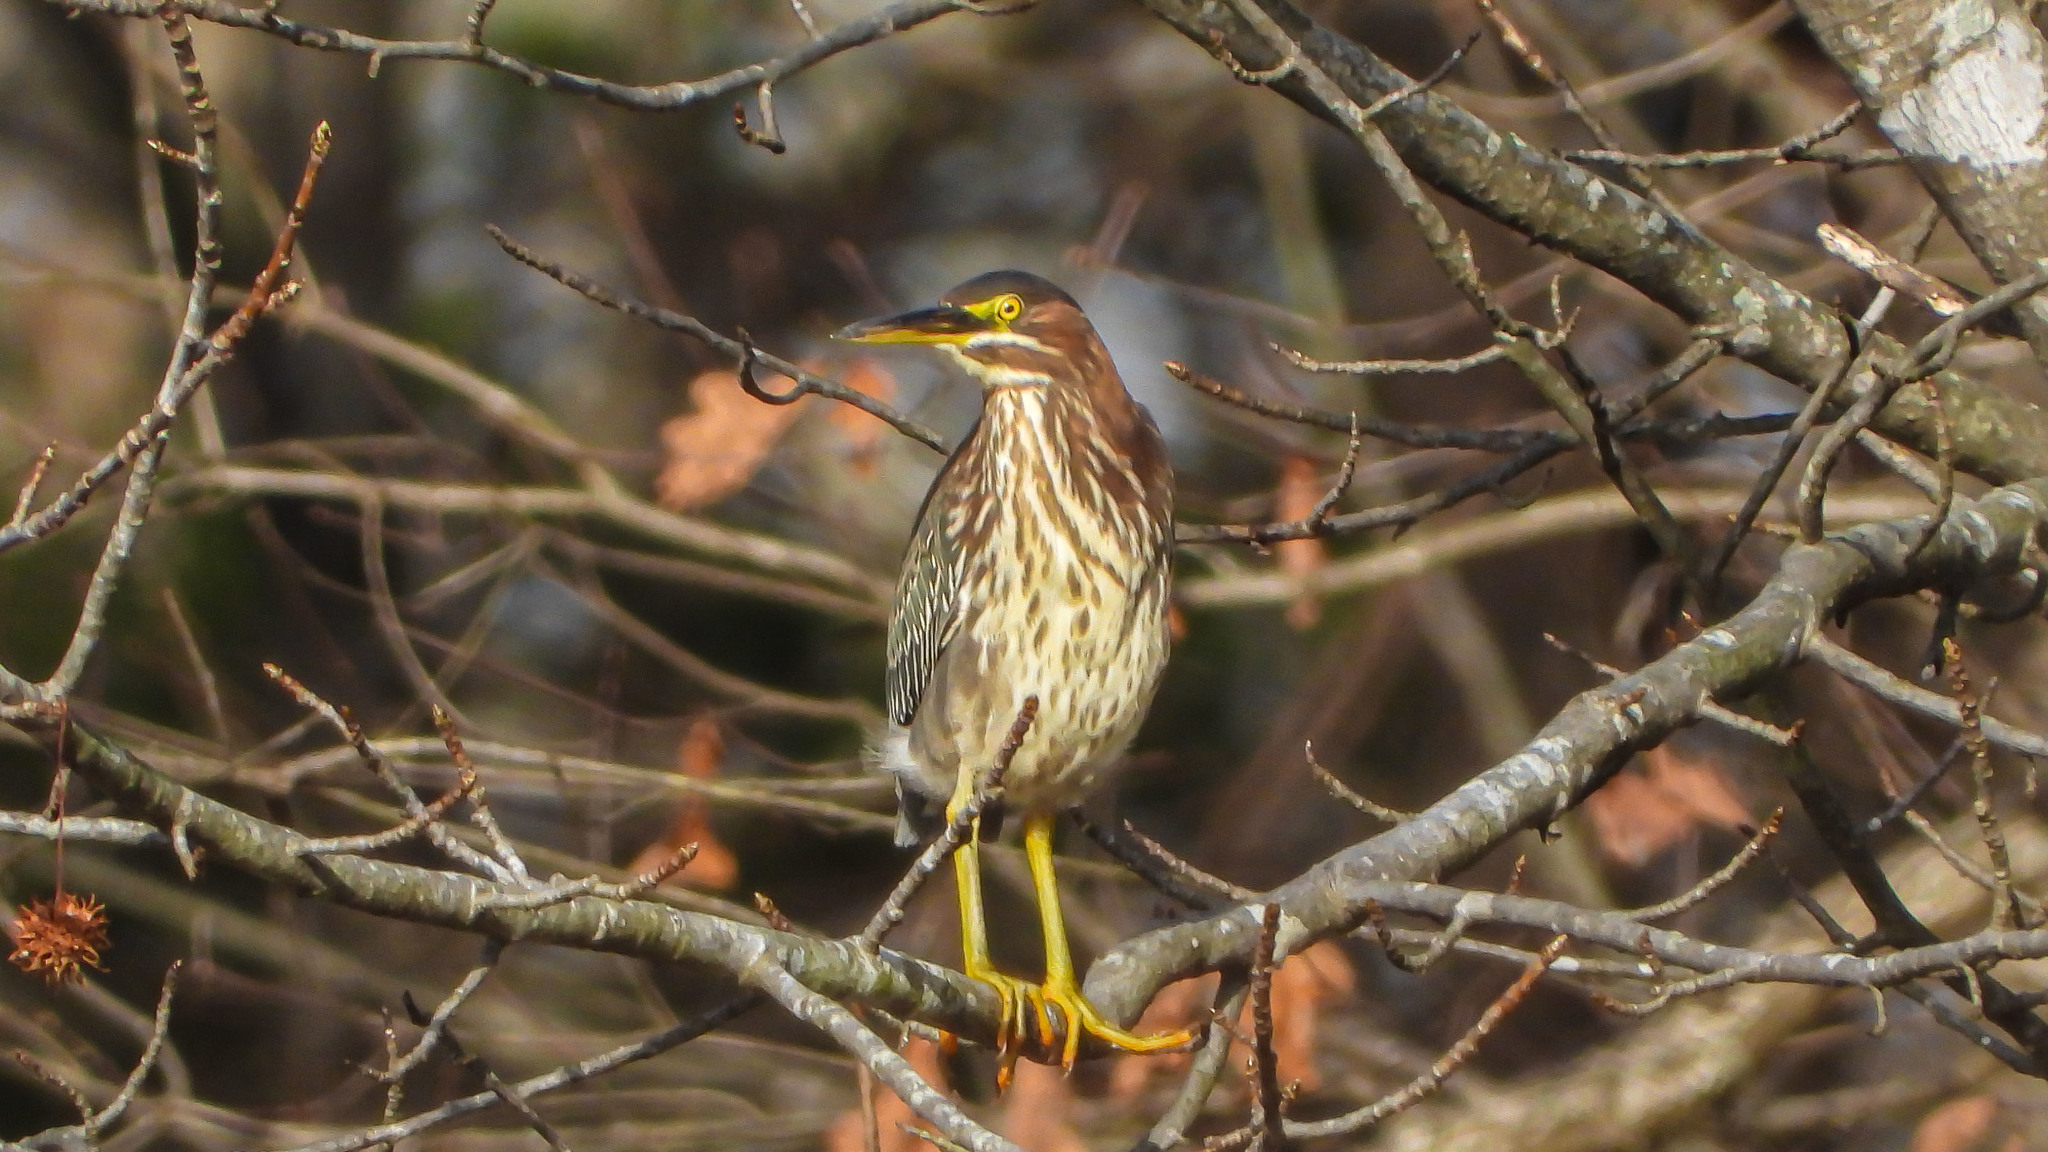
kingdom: Animalia
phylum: Chordata
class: Aves
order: Pelecaniformes
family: Ardeidae
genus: Butorides
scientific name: Butorides virescens
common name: Green heron
